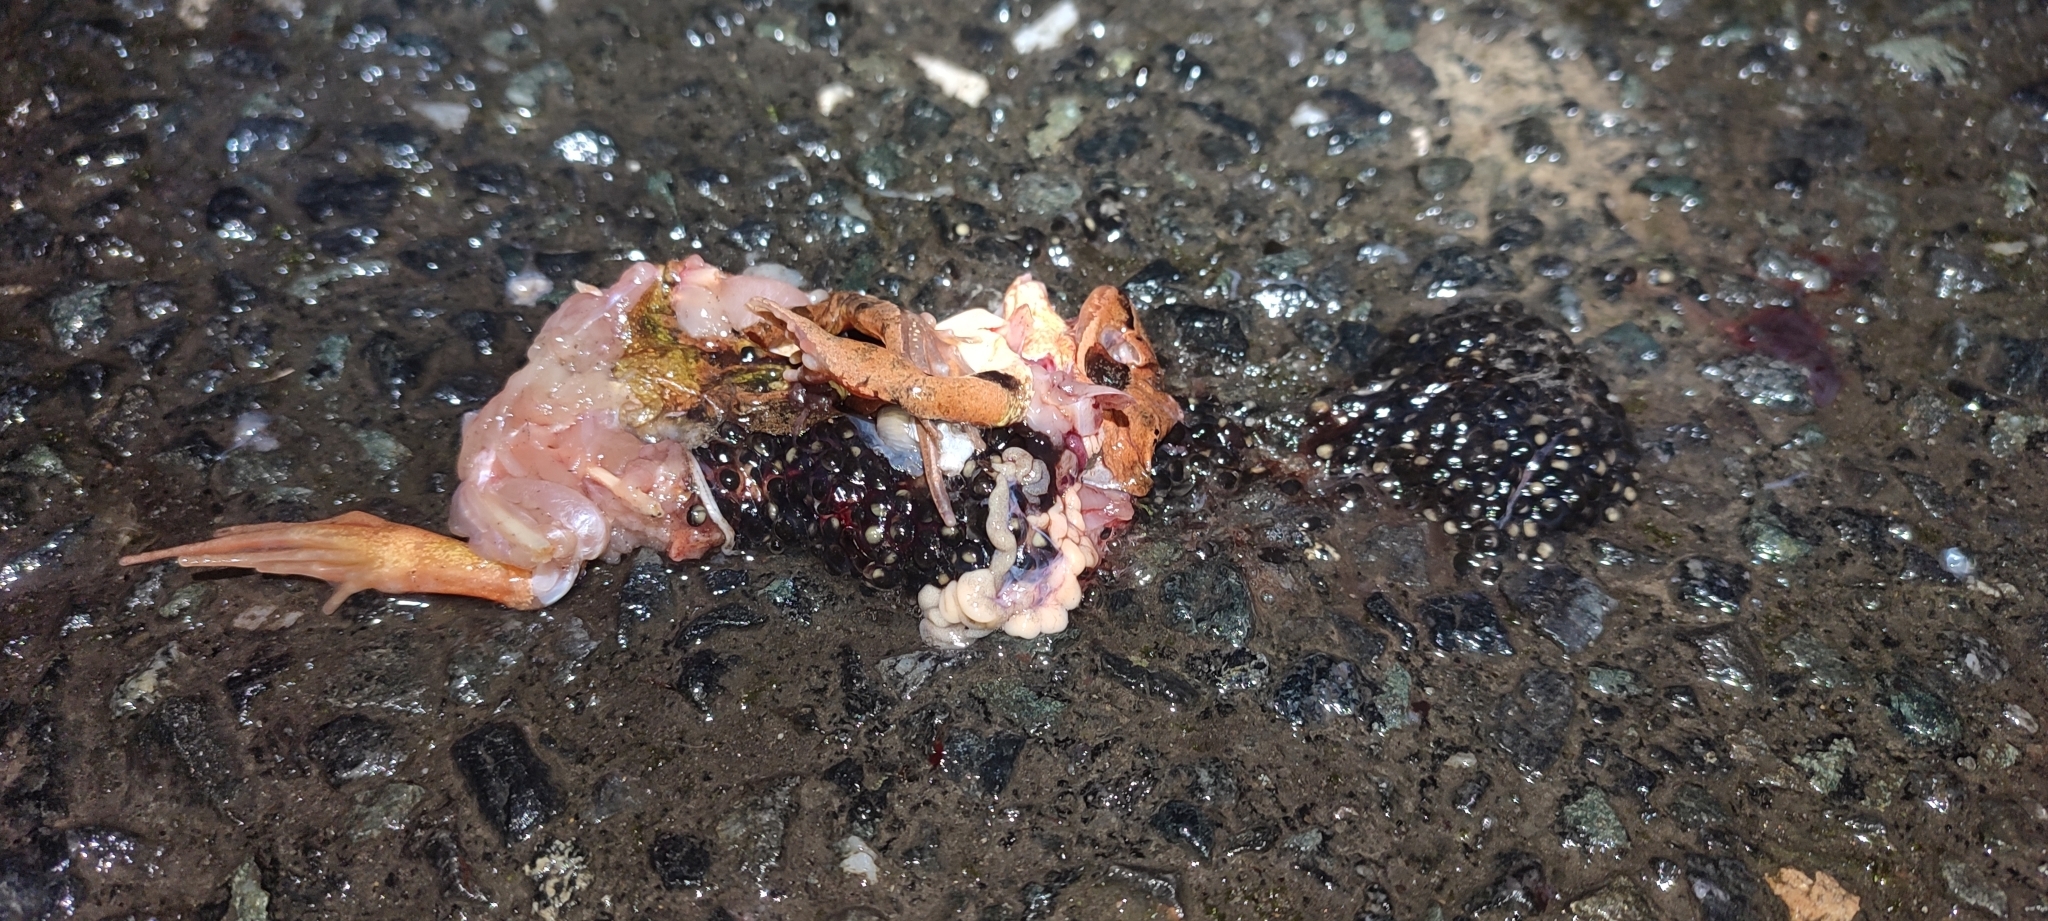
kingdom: Animalia
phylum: Chordata
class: Amphibia
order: Anura
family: Ranidae
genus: Rana
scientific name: Rana dalmatina
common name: Agile frog
